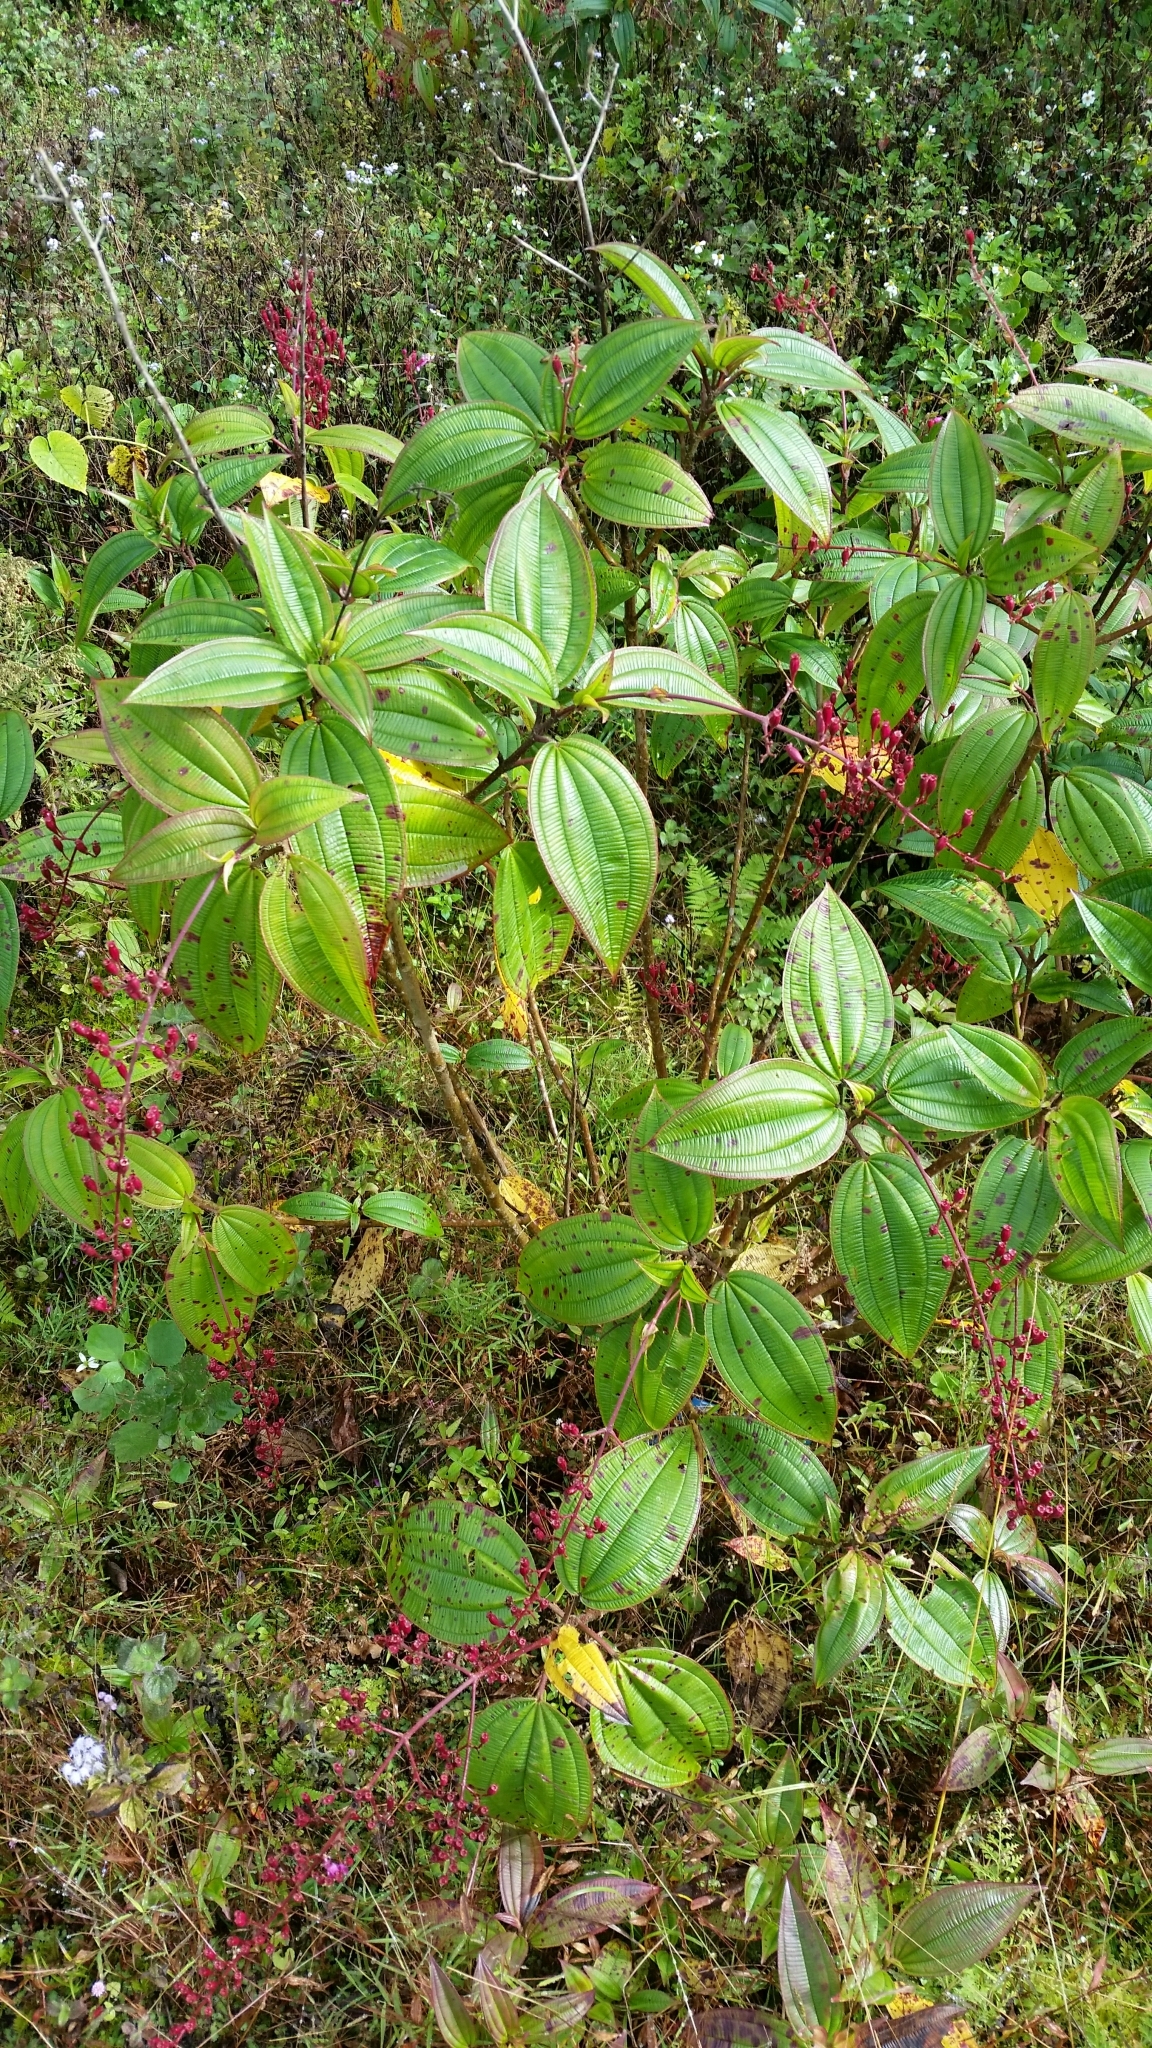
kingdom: Plantae
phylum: Tracheophyta
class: Magnoliopsida
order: Myrtales
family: Melastomataceae
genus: Oxyspora
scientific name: Oxyspora paniculata
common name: Bristletips
